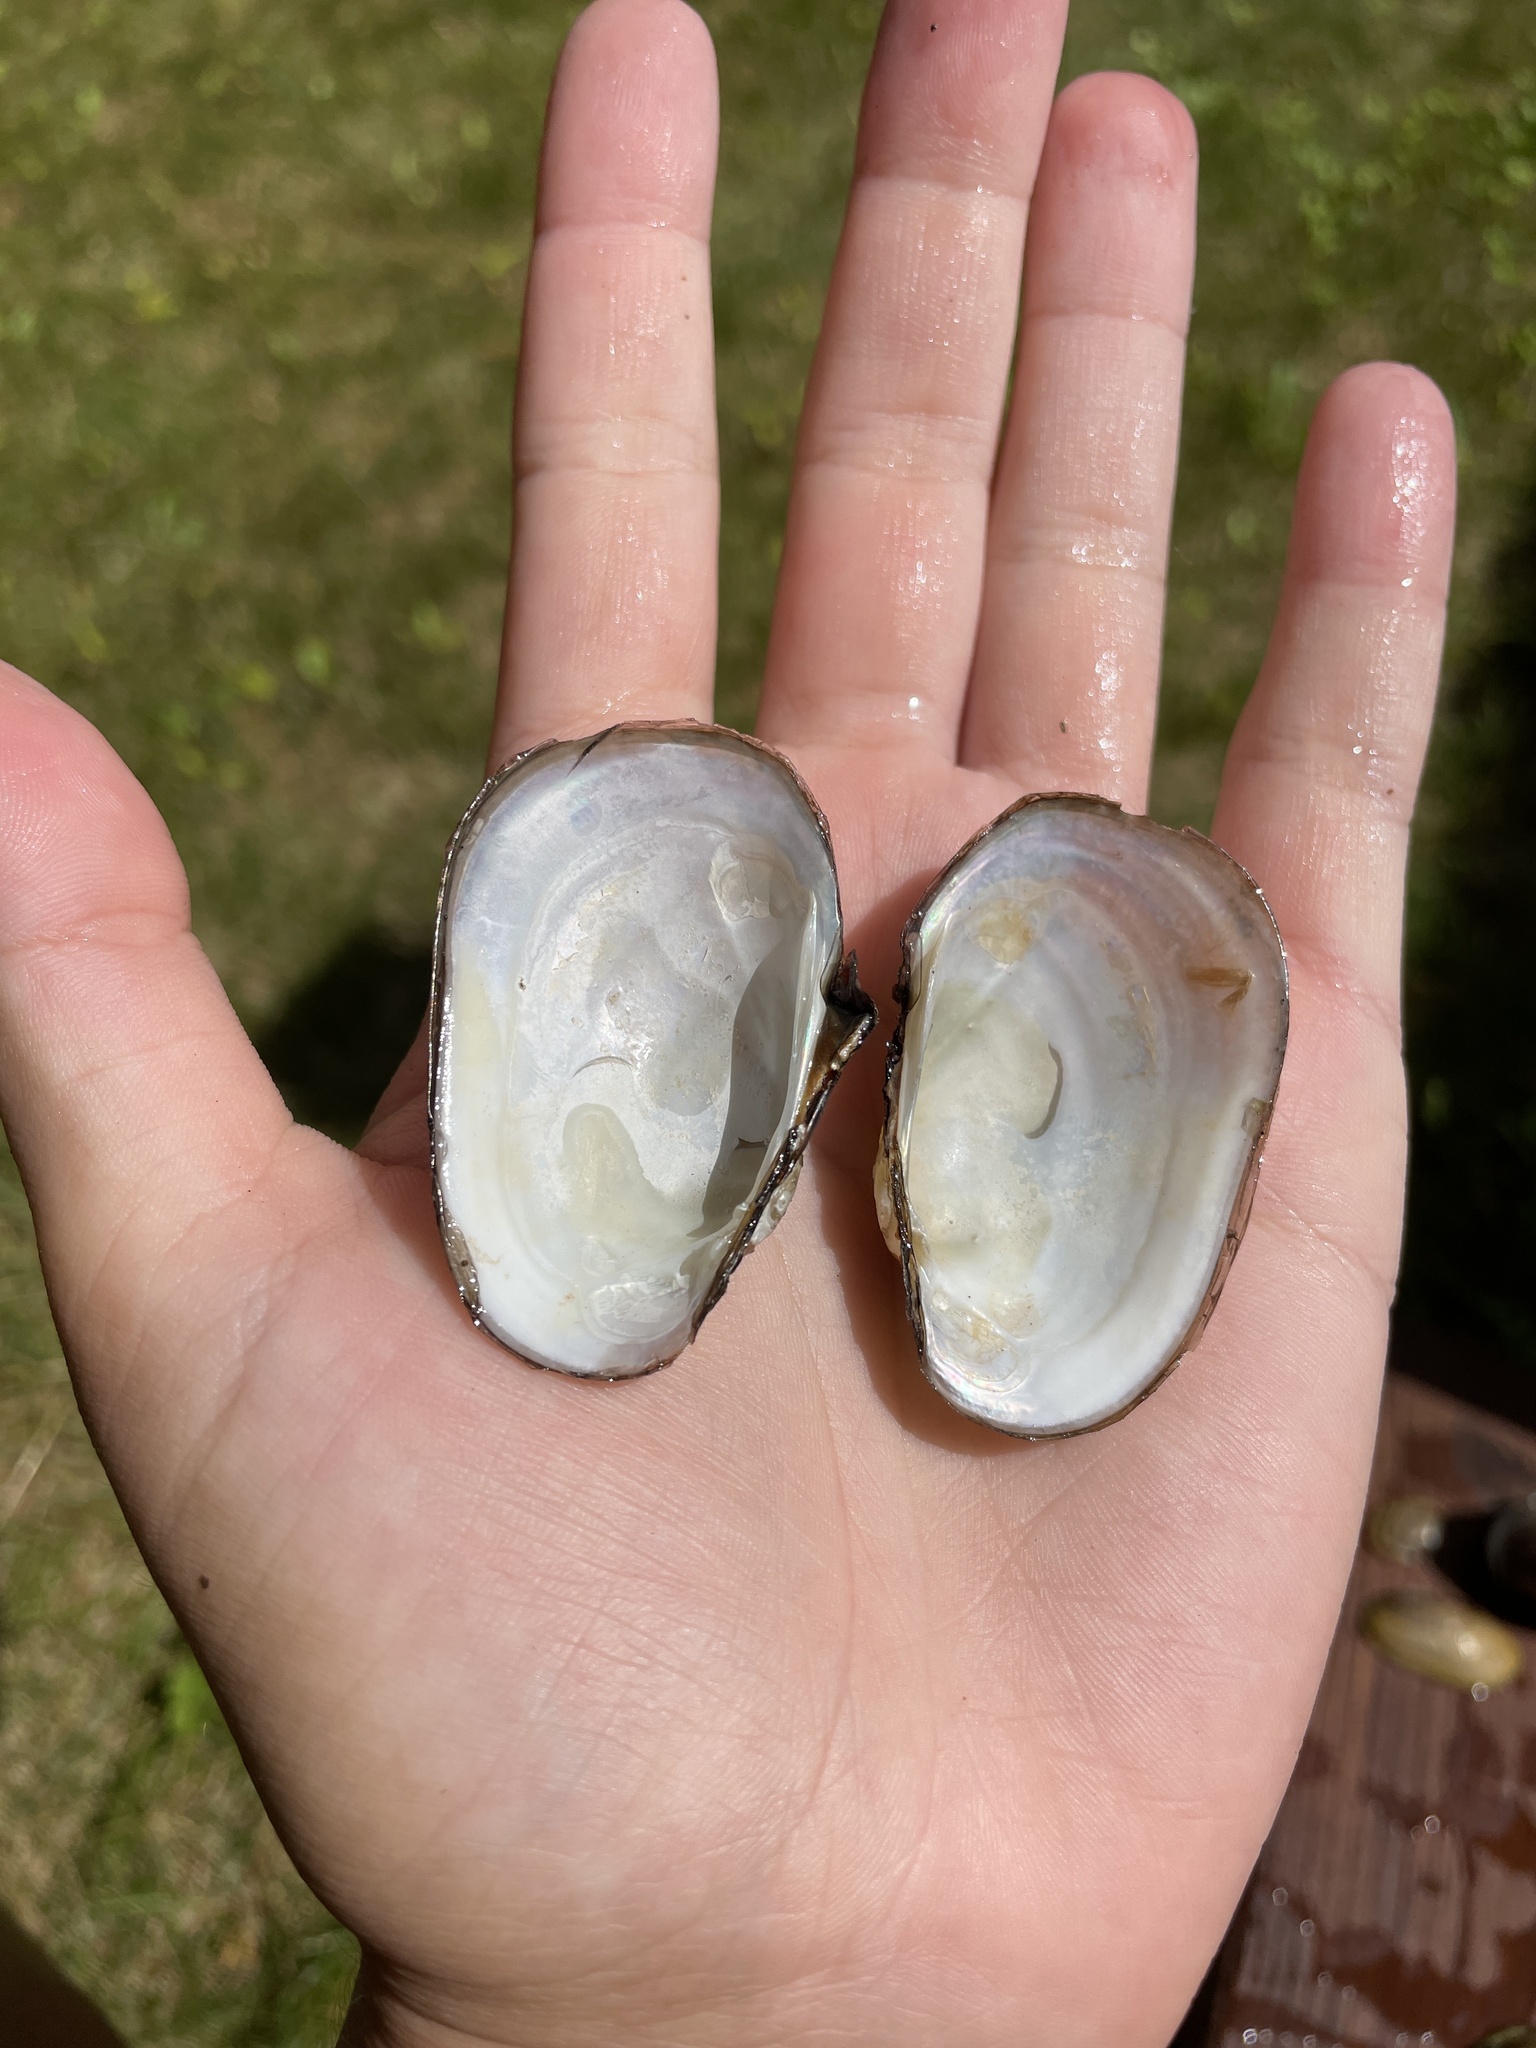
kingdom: Animalia
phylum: Mollusca
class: Bivalvia
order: Unionida
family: Unionidae
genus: Lampsilis
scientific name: Lampsilis siliquoidea
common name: Fatmucket
